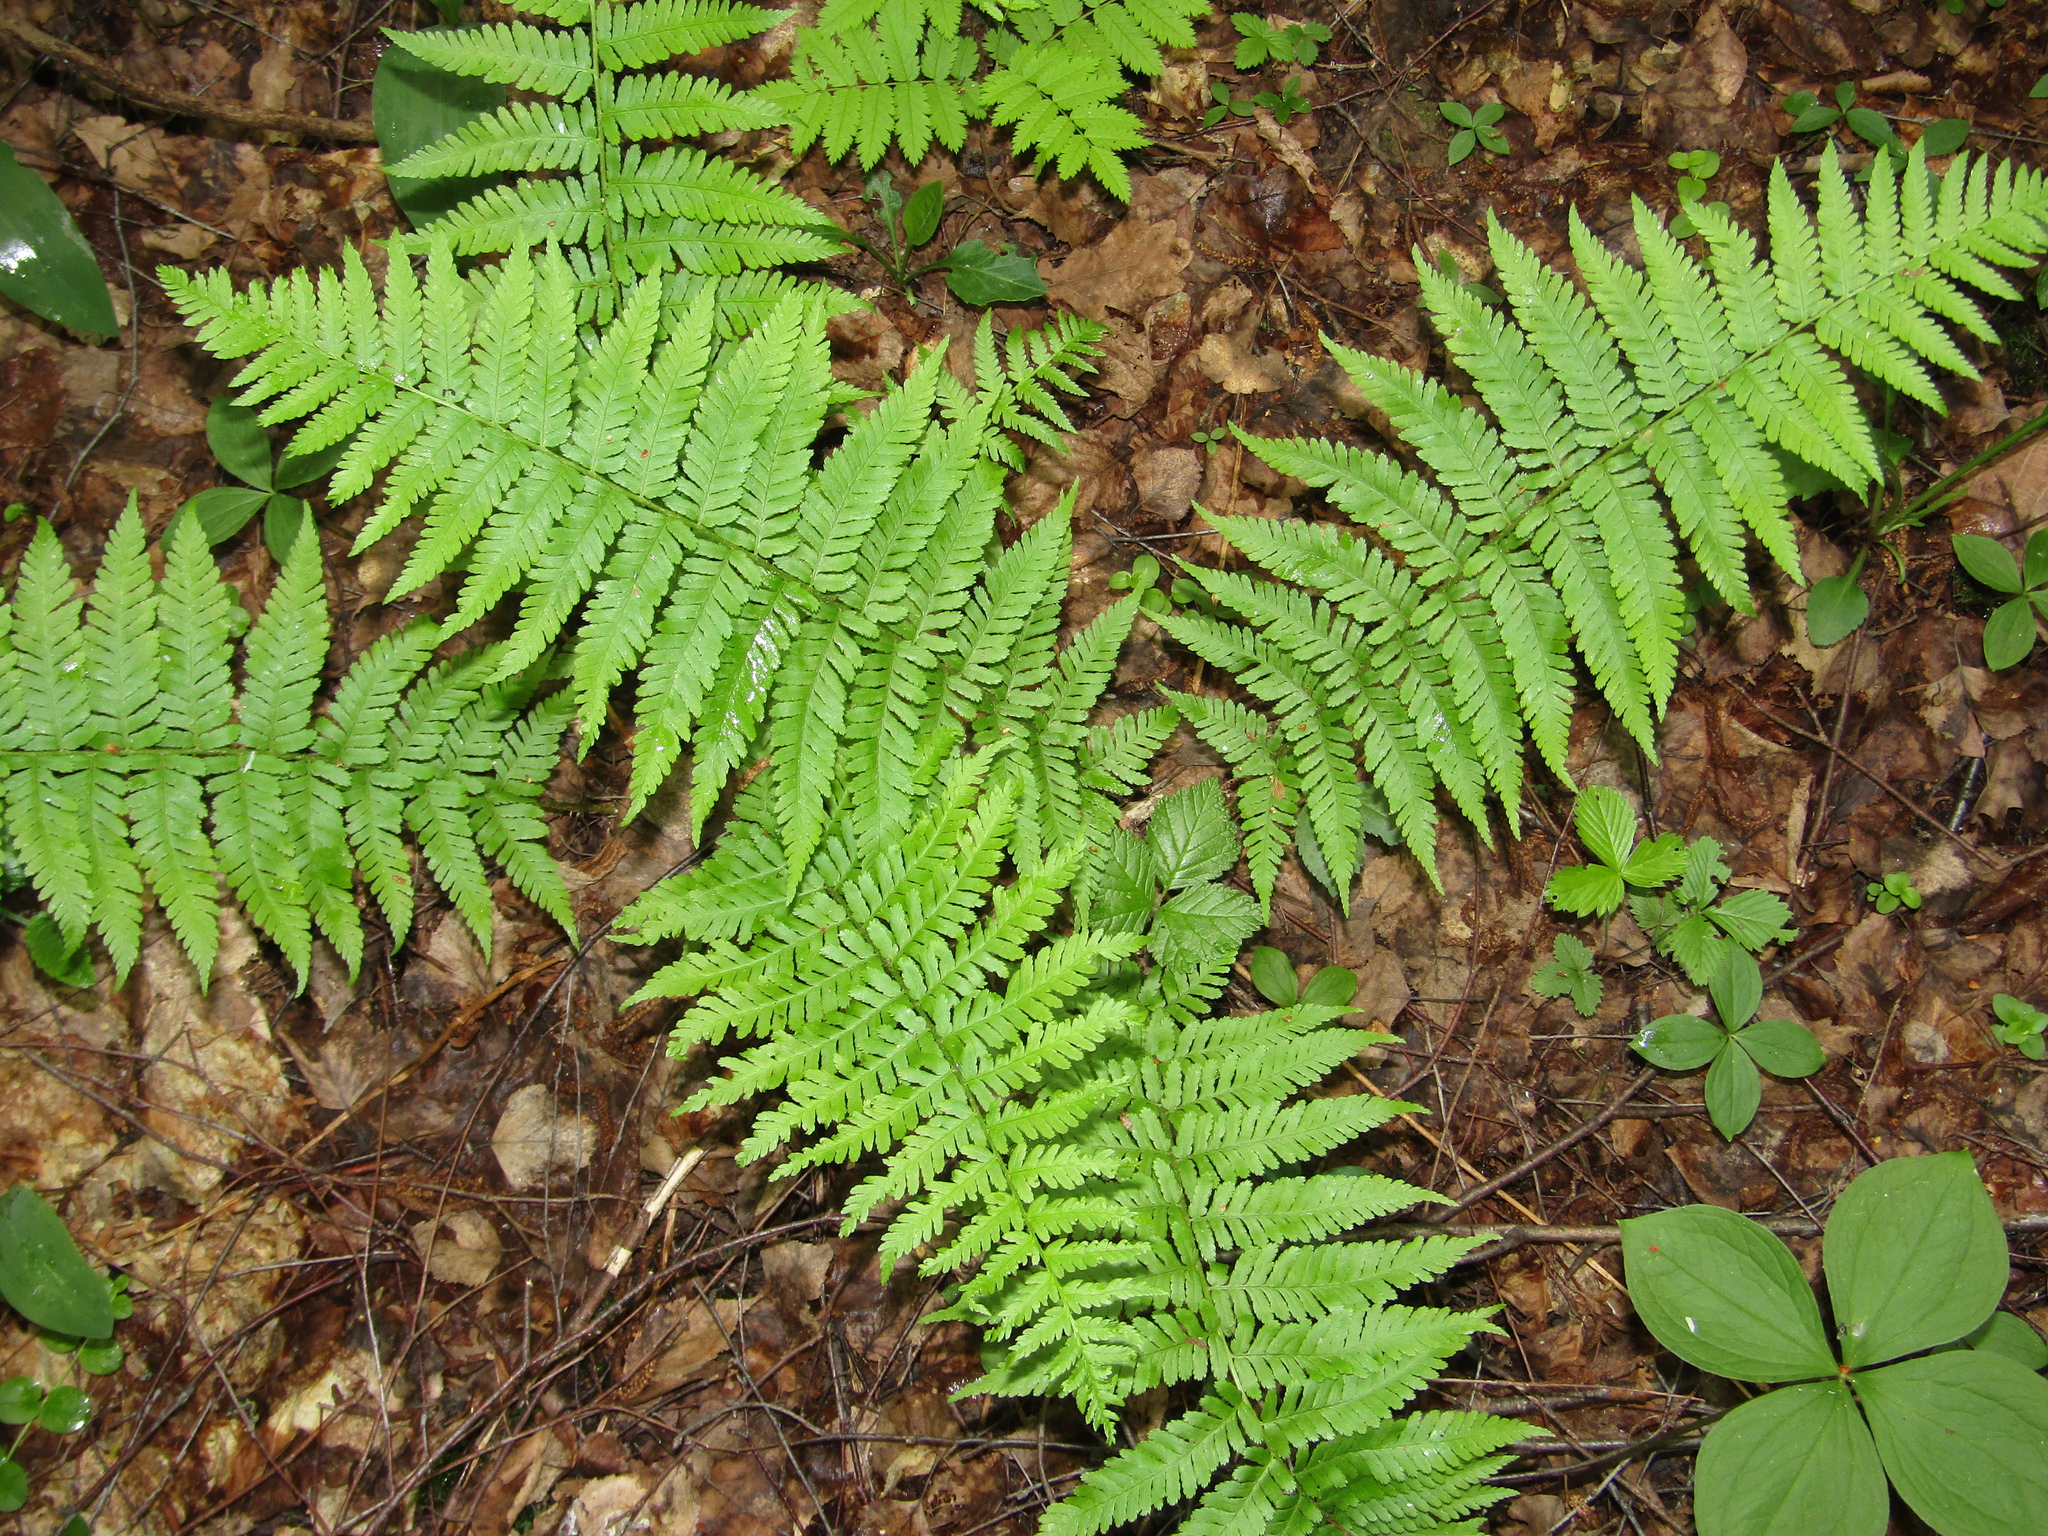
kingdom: Plantae
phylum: Tracheophyta
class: Polypodiopsida
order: Polypodiales
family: Dryopteridaceae
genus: Dryopteris
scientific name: Dryopteris filix-mas
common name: Male fern
